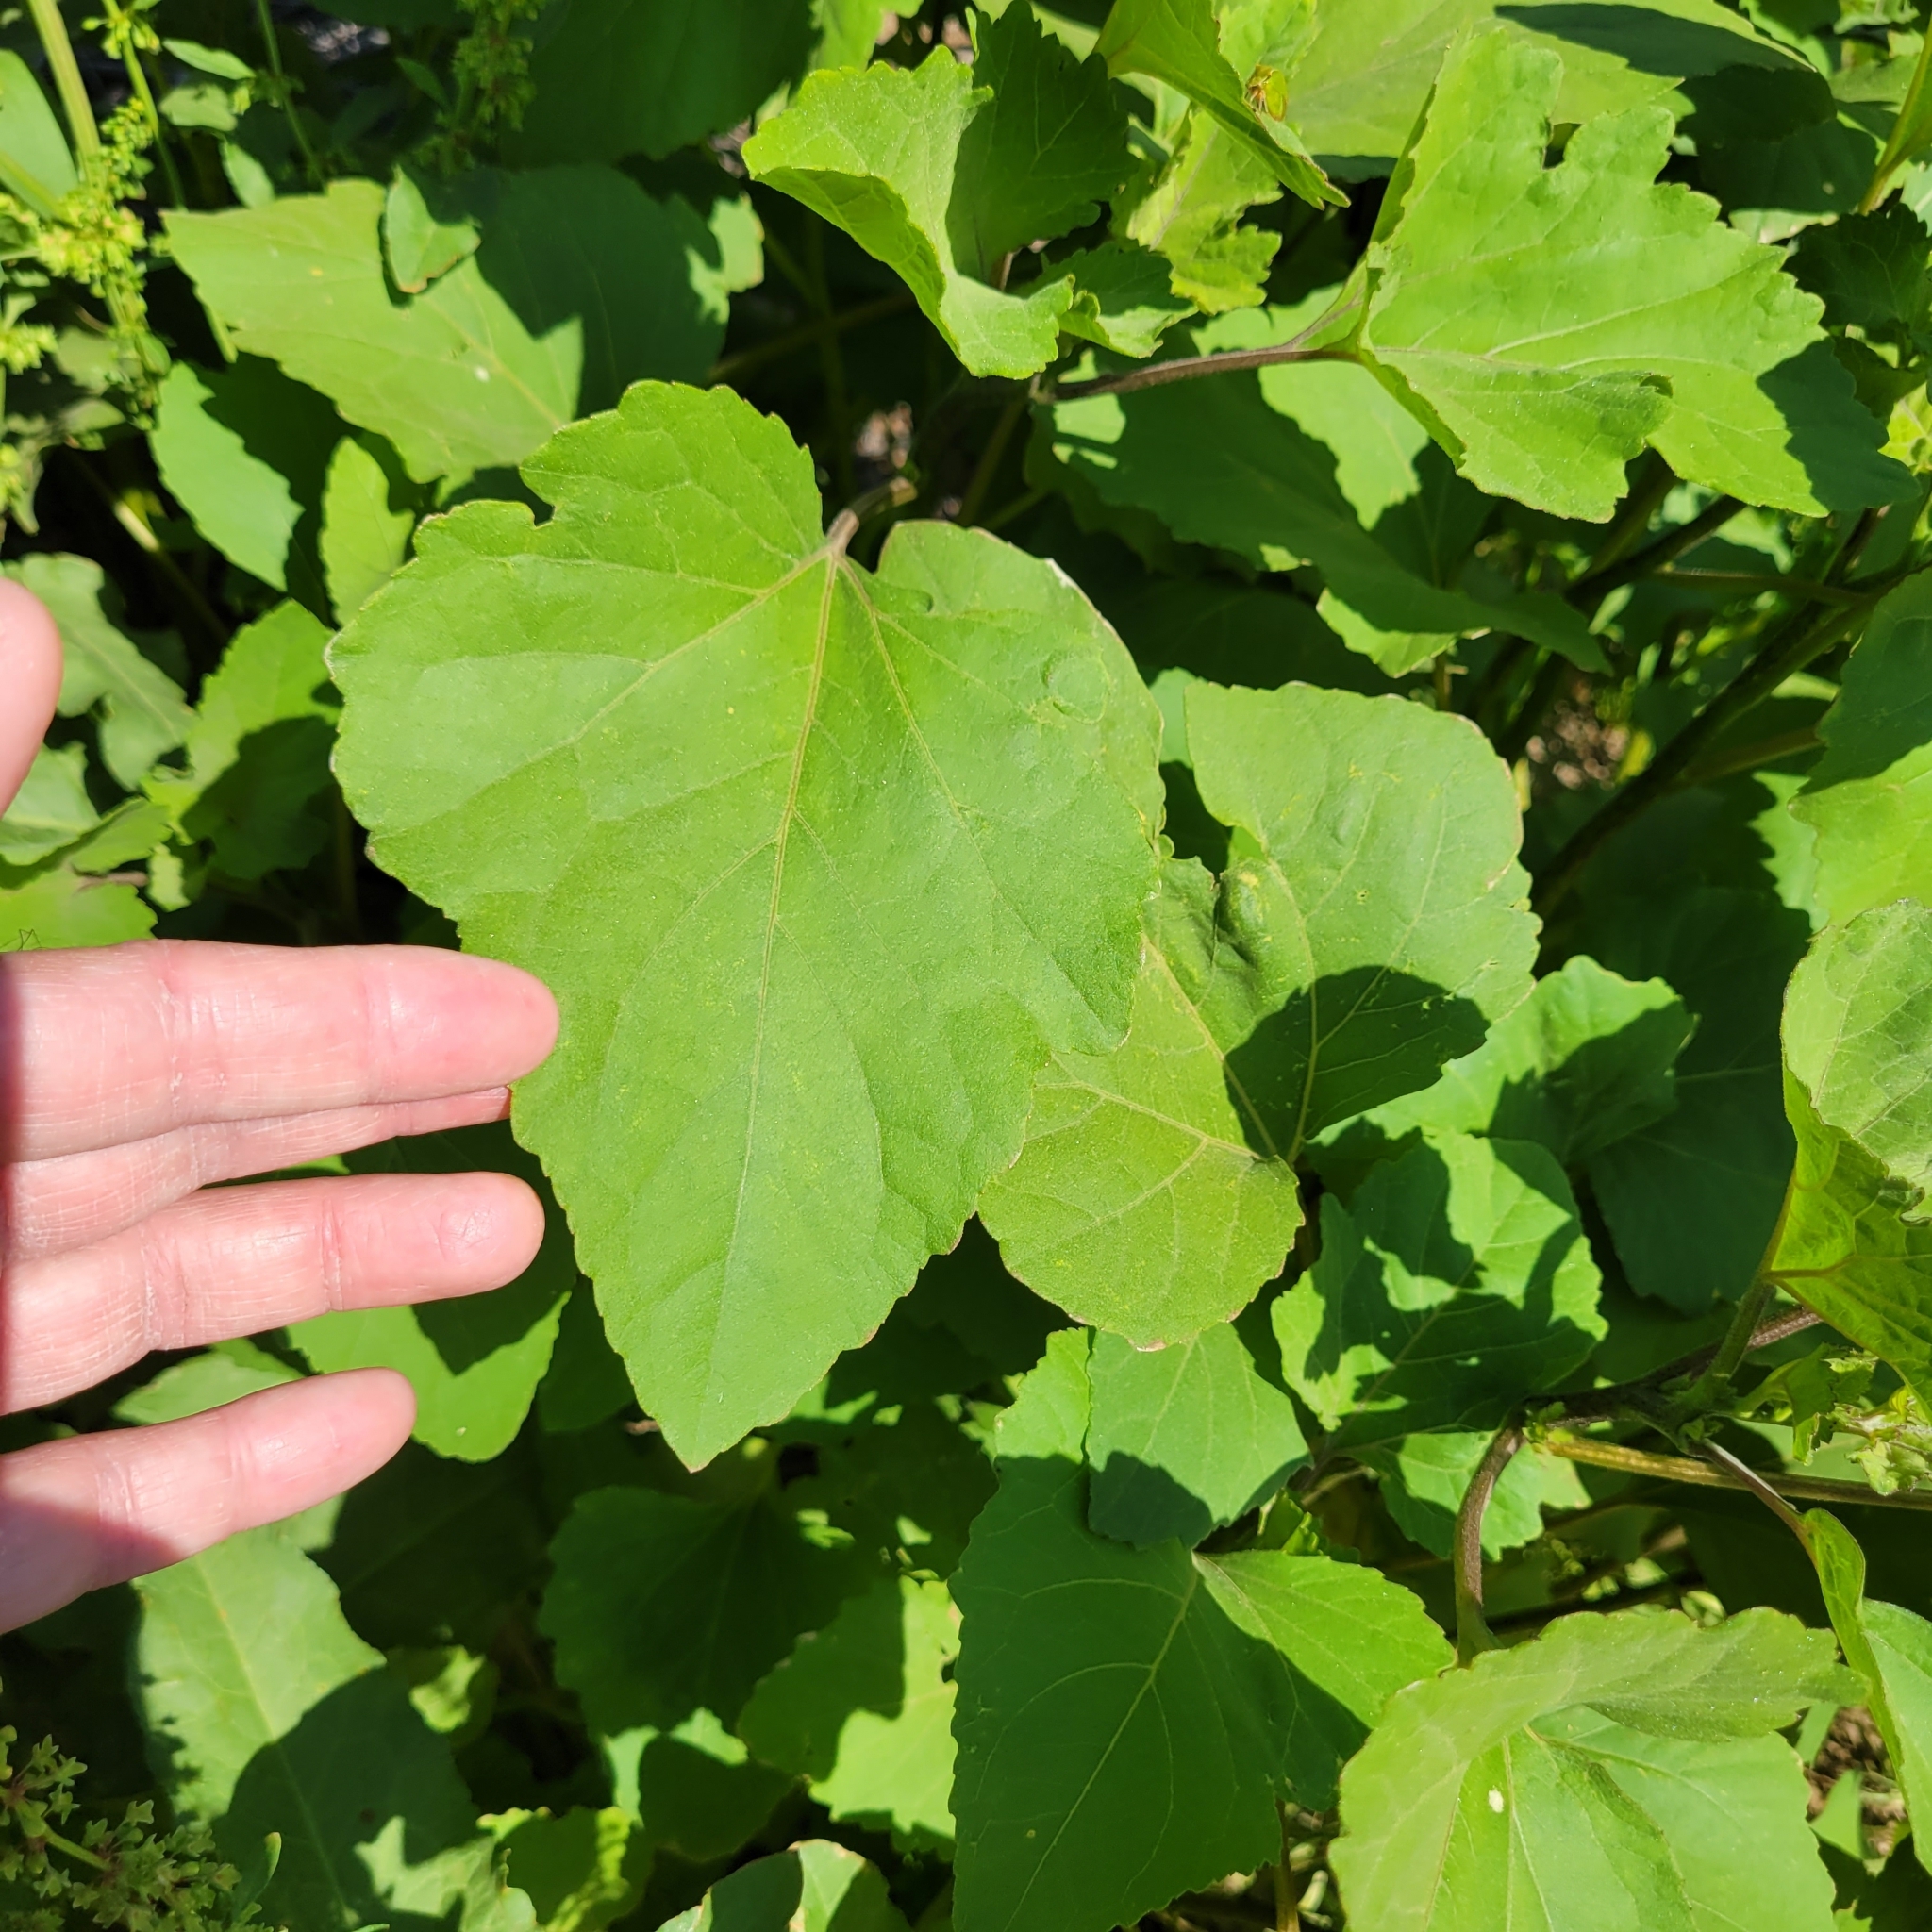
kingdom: Plantae
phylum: Tracheophyta
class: Magnoliopsida
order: Asterales
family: Asteraceae
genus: Xanthium
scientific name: Xanthium strumarium
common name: Rough cocklebur
